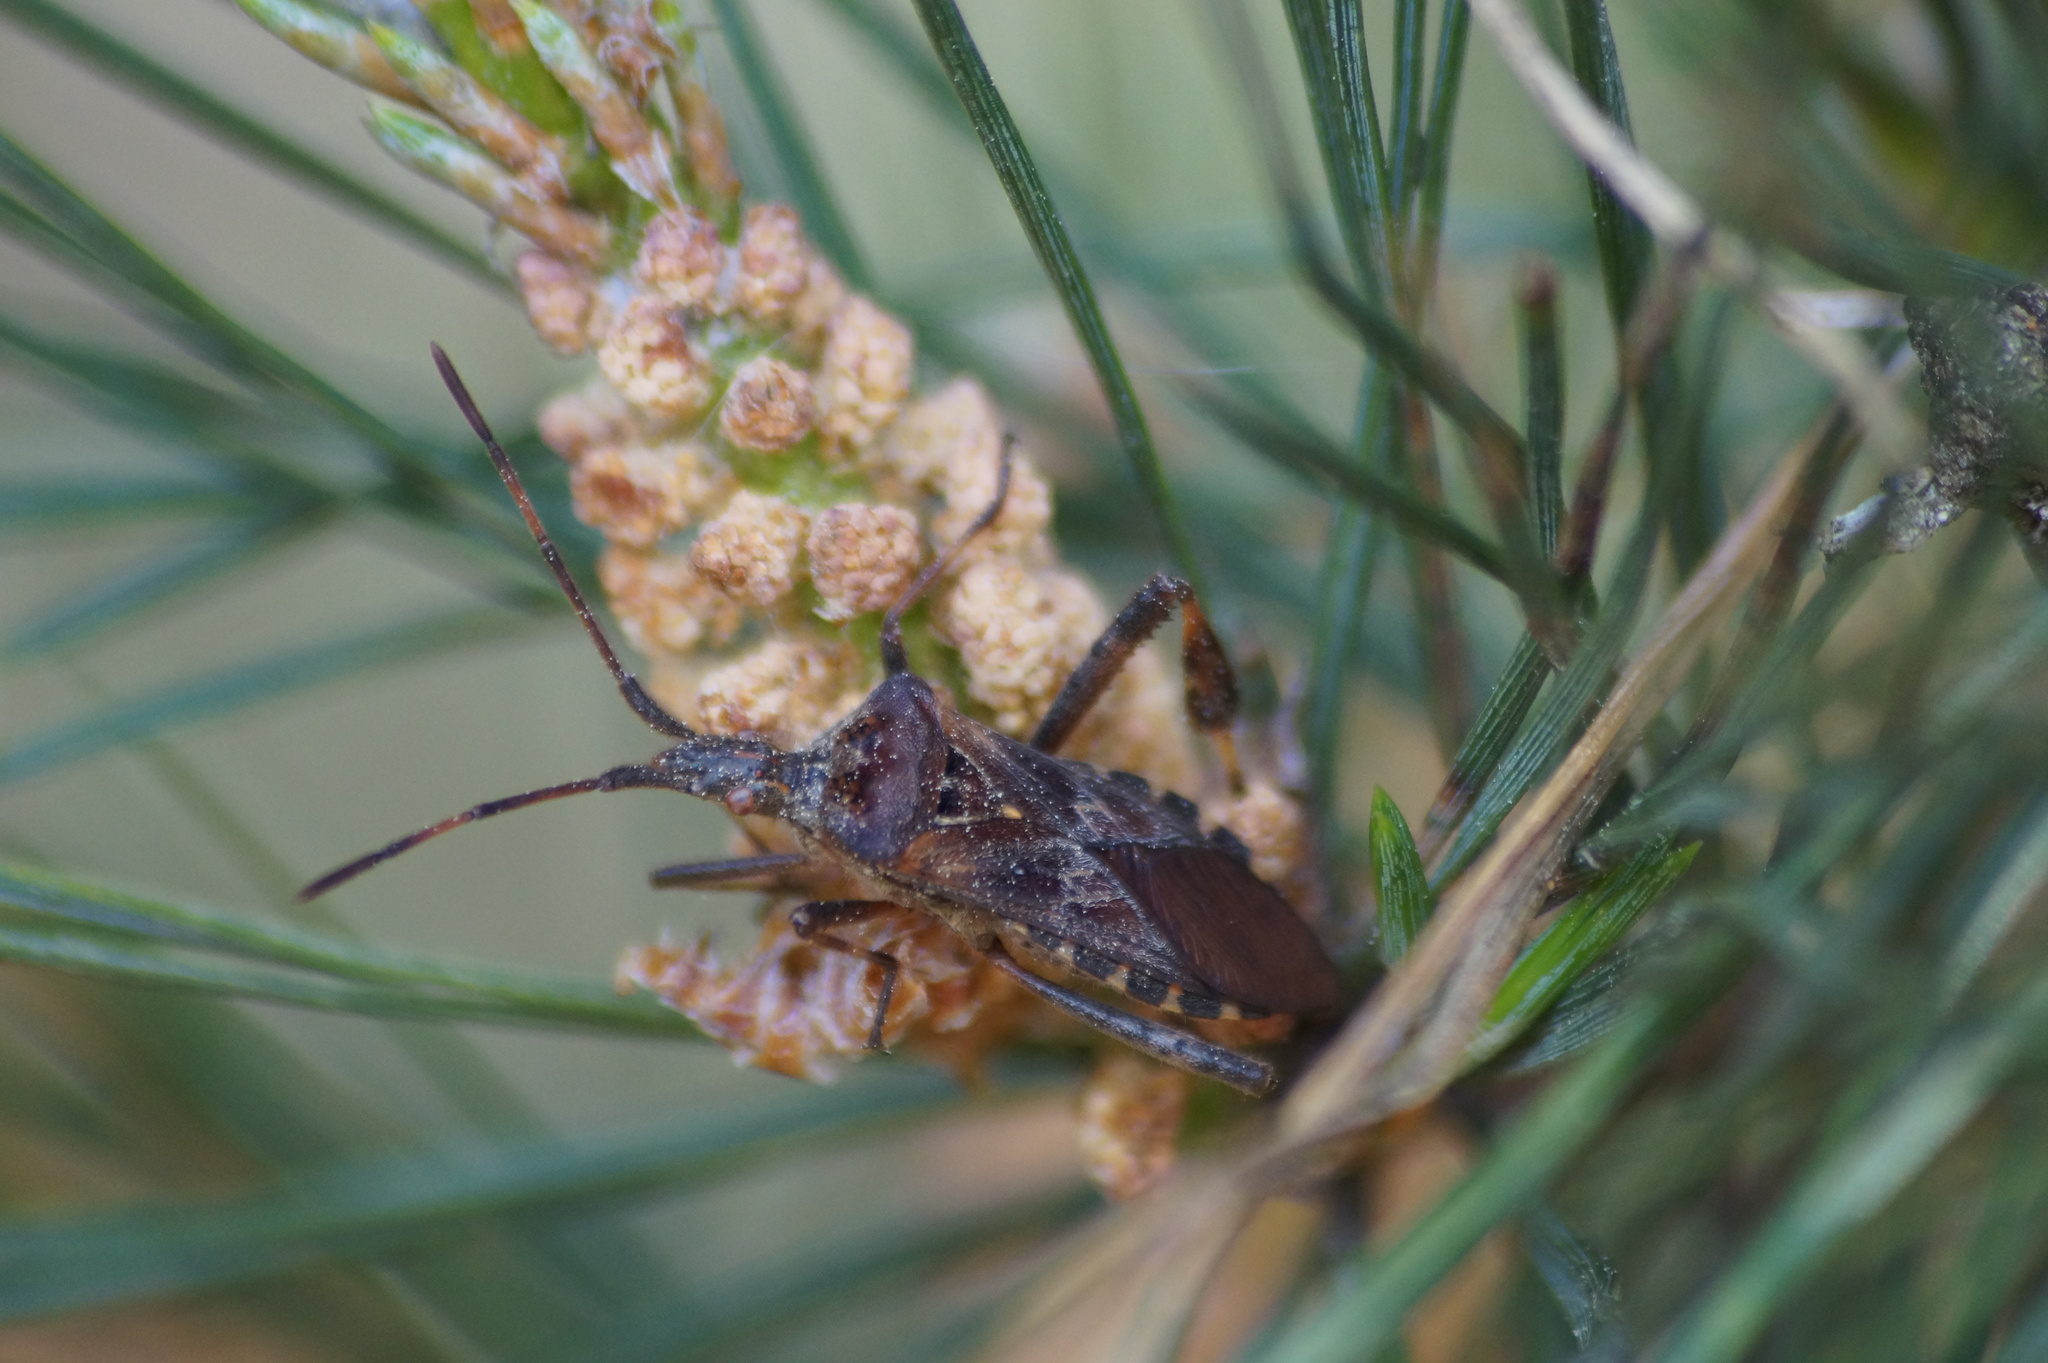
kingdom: Animalia
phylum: Arthropoda
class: Insecta
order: Hemiptera
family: Coreidae
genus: Leptoglossus
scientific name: Leptoglossus occidentalis
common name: Western conifer-seed bug
